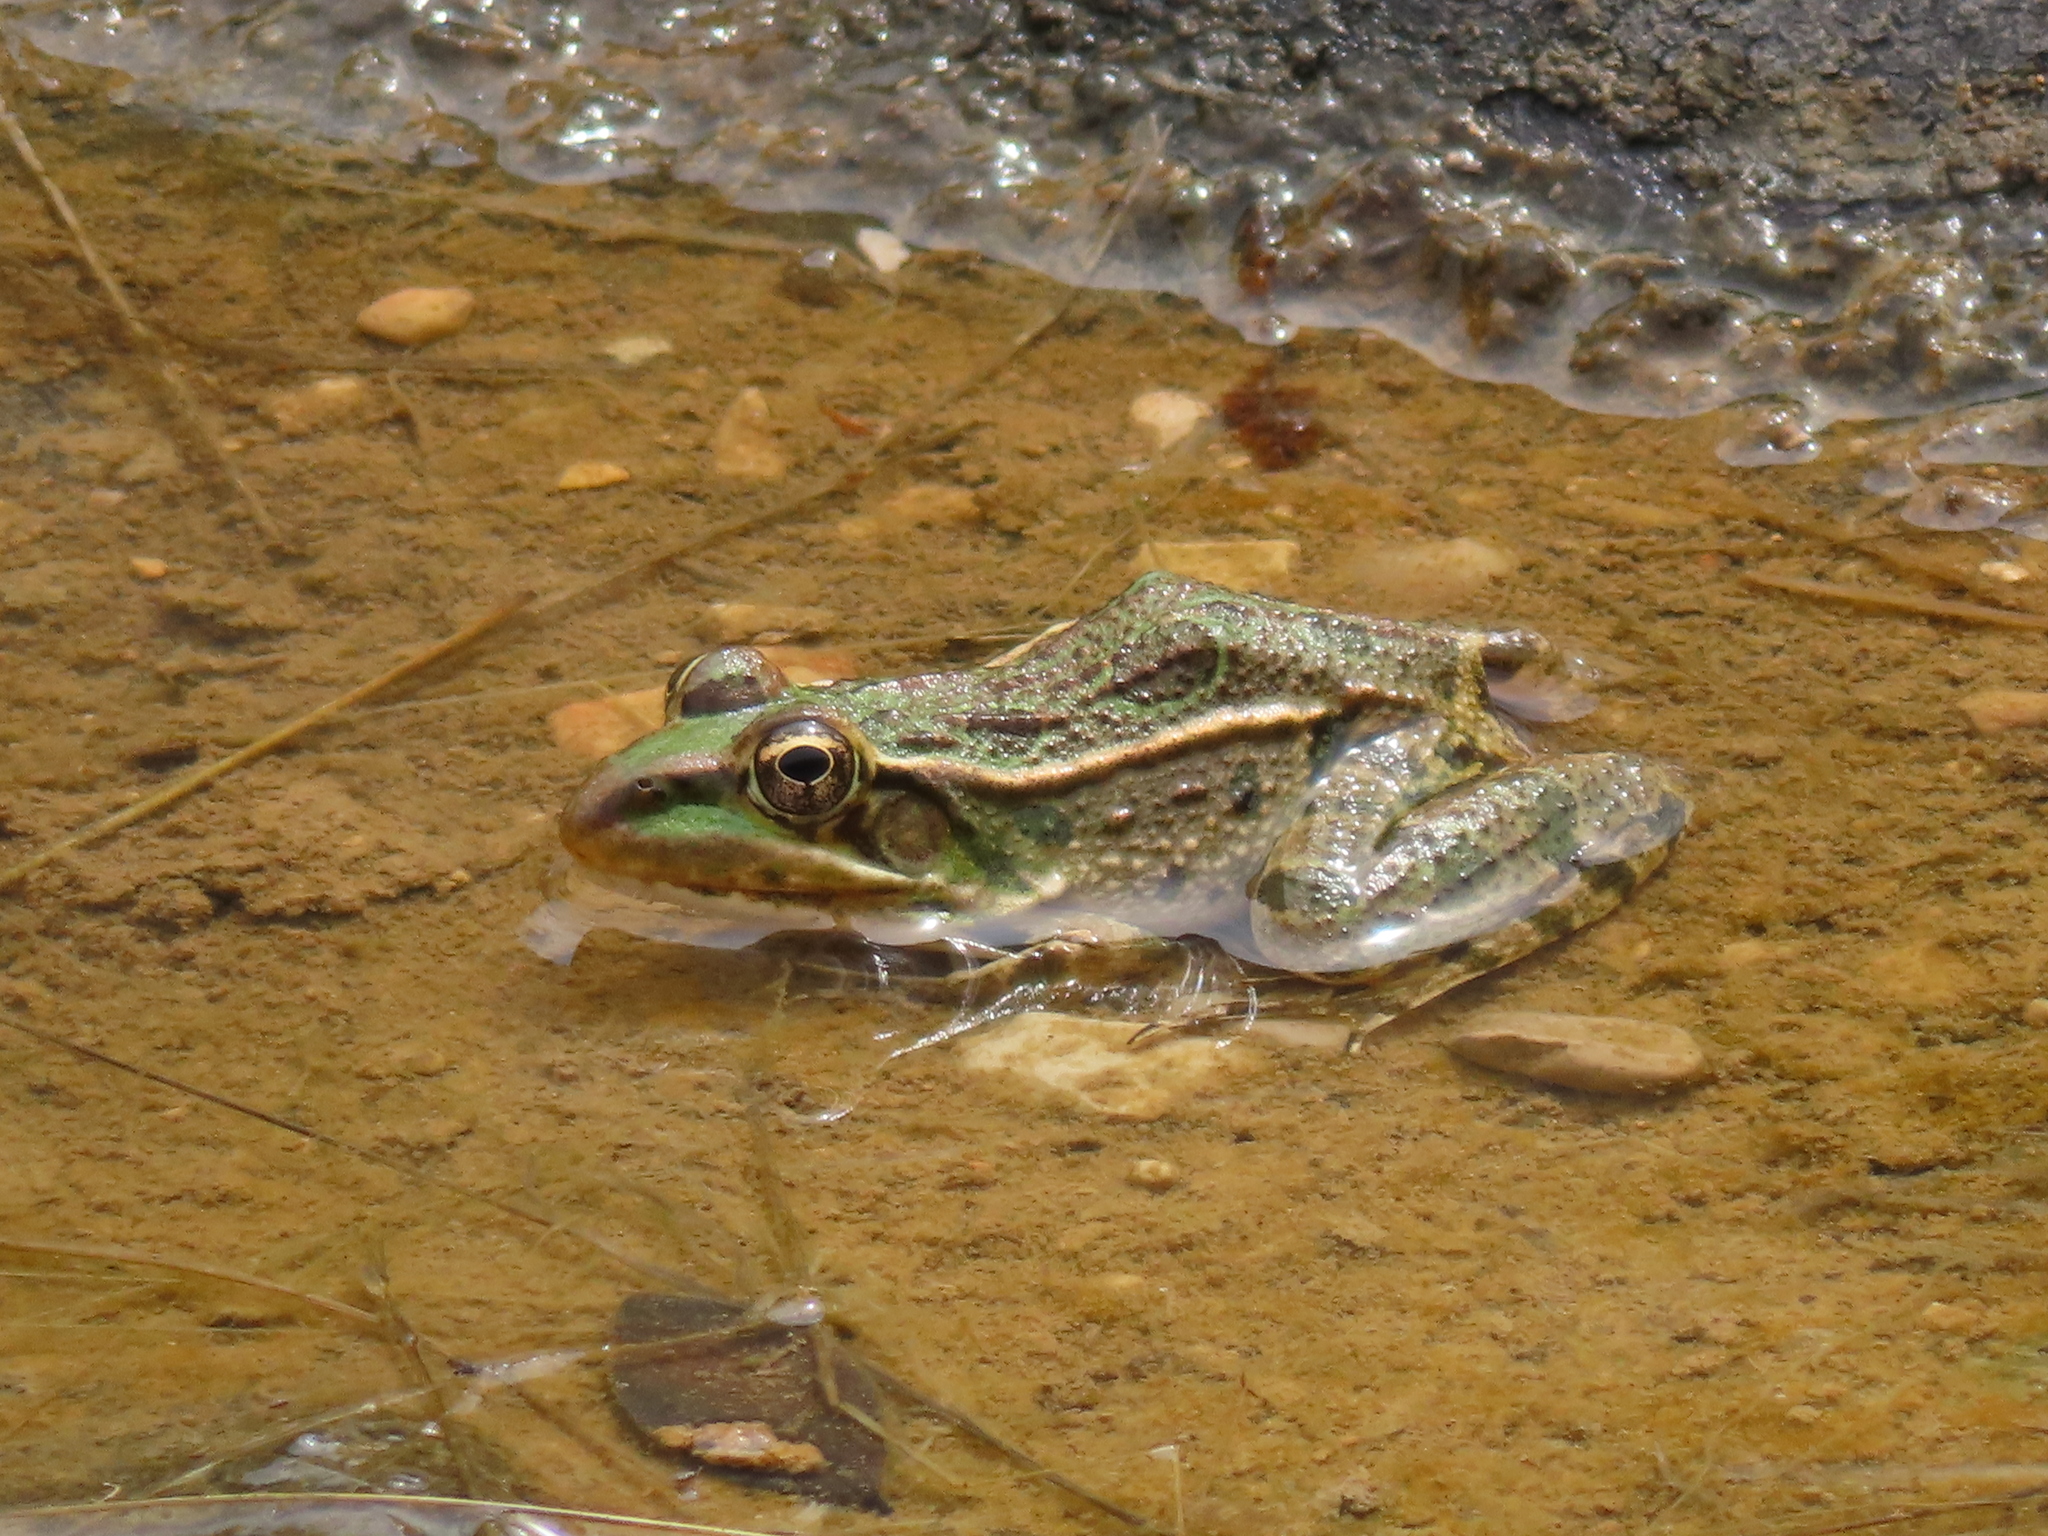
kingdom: Animalia
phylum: Chordata
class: Amphibia
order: Anura
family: Ranidae
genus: Lithobates
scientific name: Lithobates berlandieri
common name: Rio grande leopard frog
